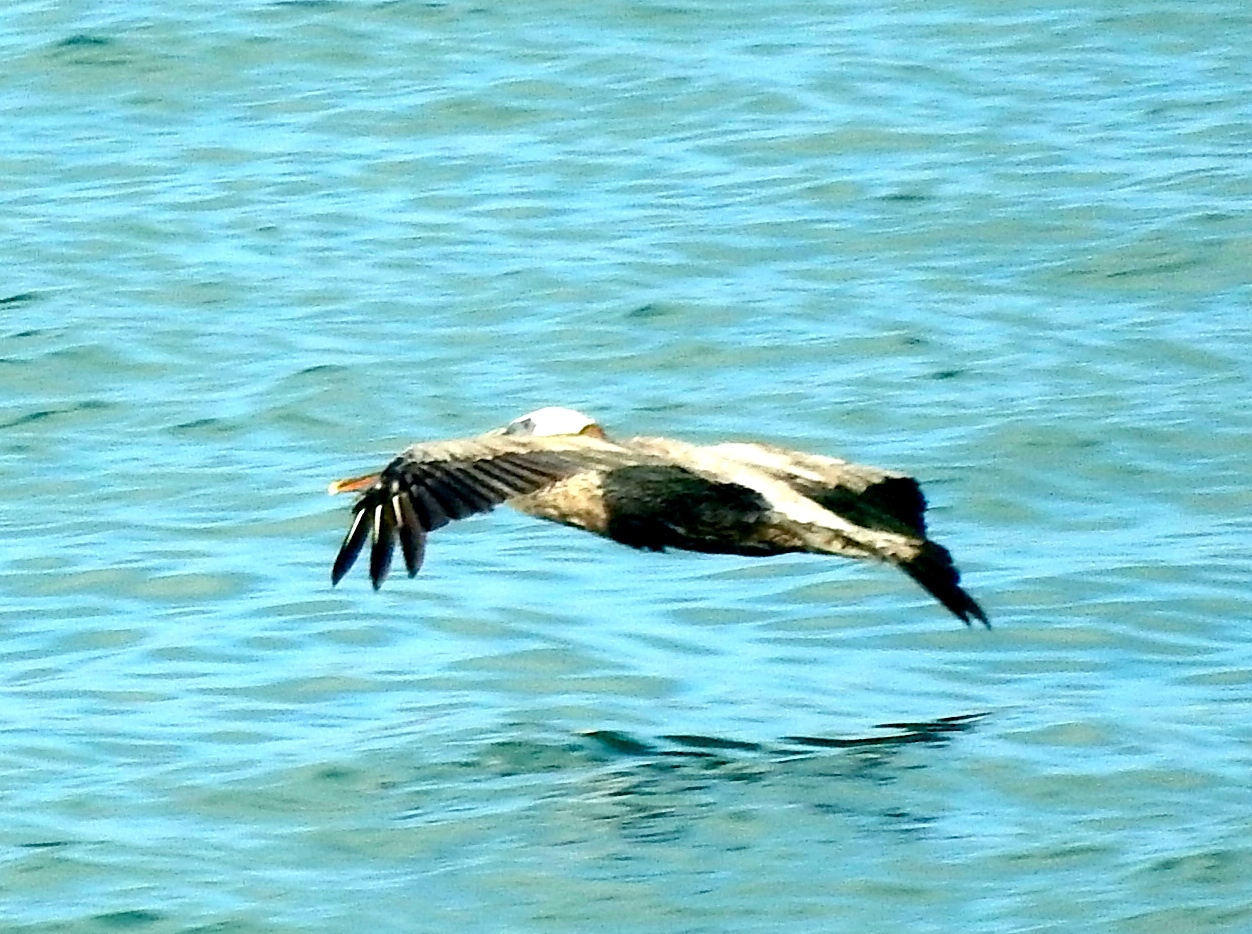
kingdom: Animalia
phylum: Chordata
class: Aves
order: Pelecaniformes
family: Pelecanidae
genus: Pelecanus
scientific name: Pelecanus occidentalis
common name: Brown pelican
